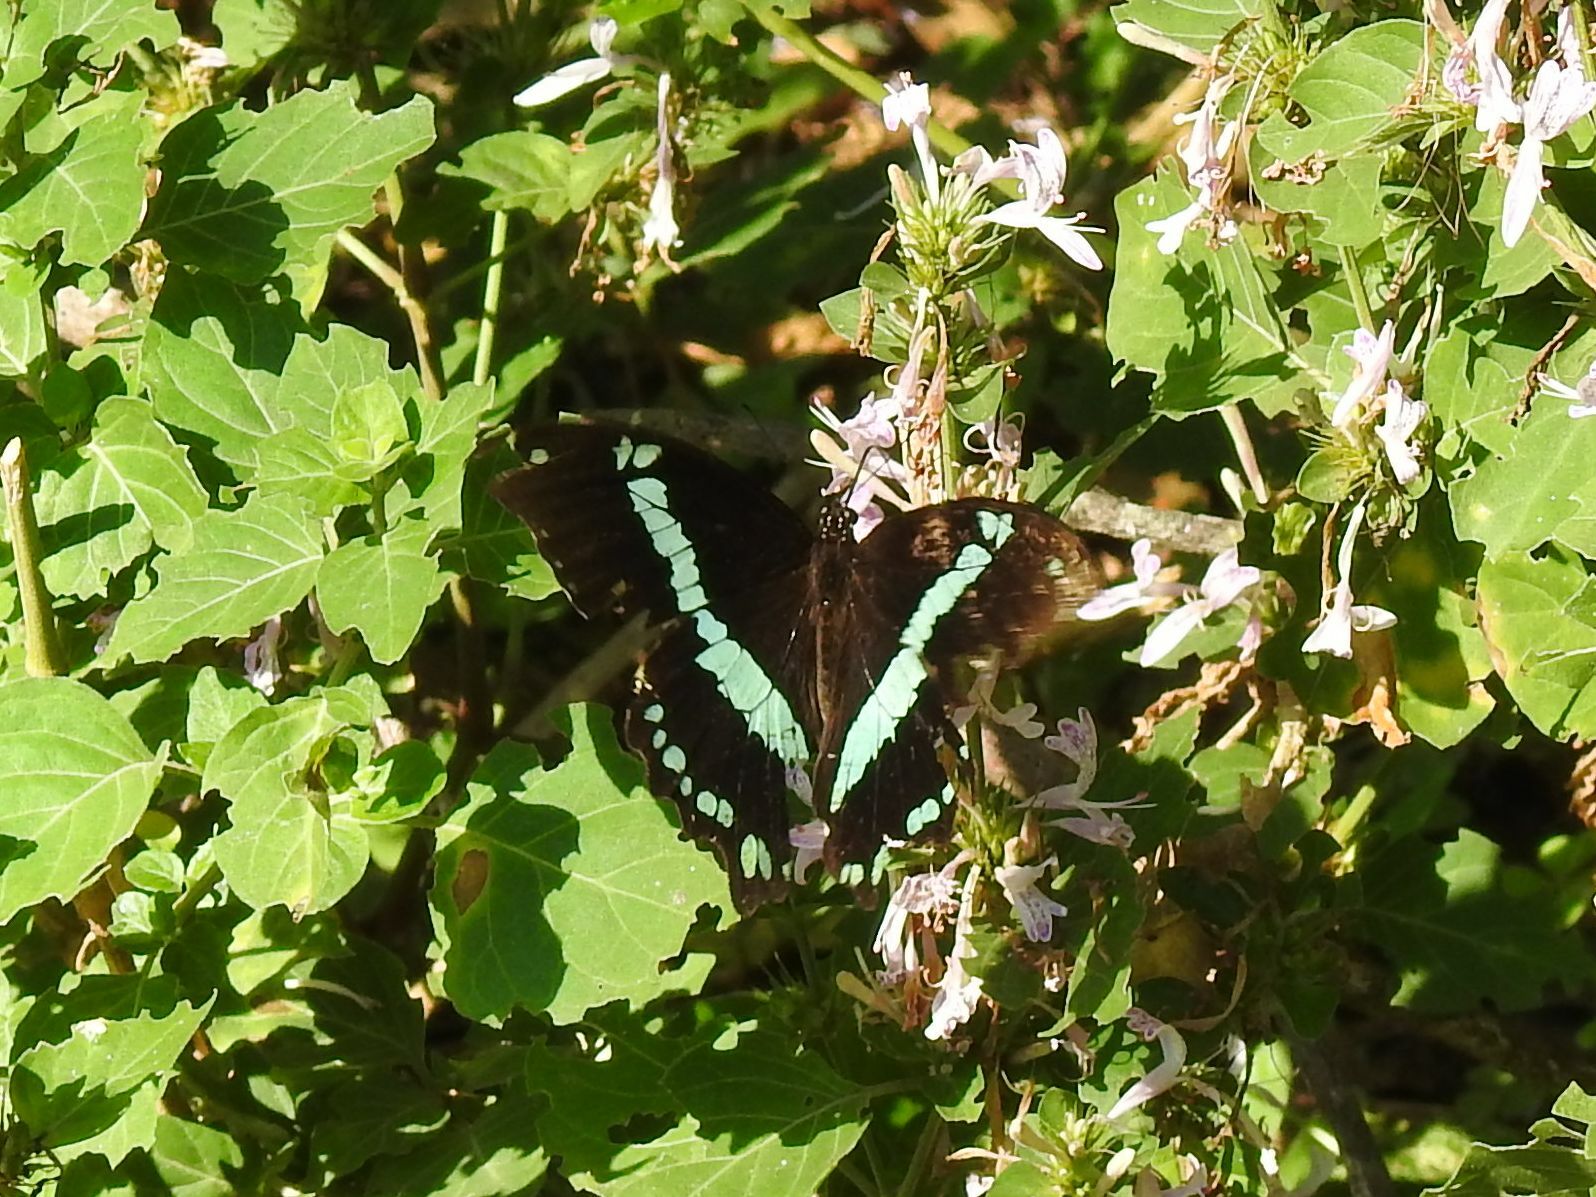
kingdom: Animalia
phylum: Arthropoda
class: Insecta
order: Lepidoptera
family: Papilionidae
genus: Papilio
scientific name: Papilio nireus
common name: Greenbanded swallowtail
